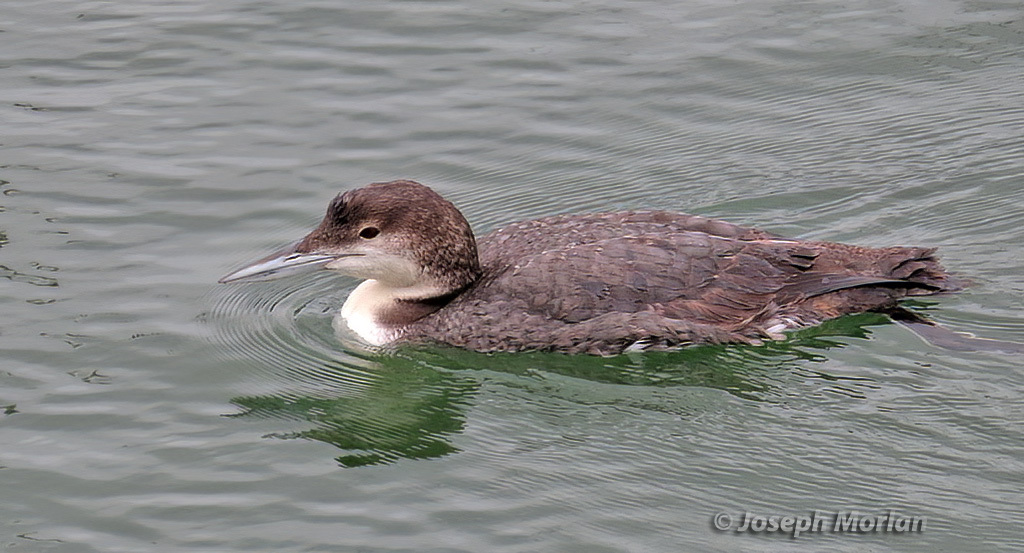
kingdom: Animalia
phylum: Chordata
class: Aves
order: Gaviiformes
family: Gaviidae
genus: Gavia
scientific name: Gavia immer
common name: Common loon
